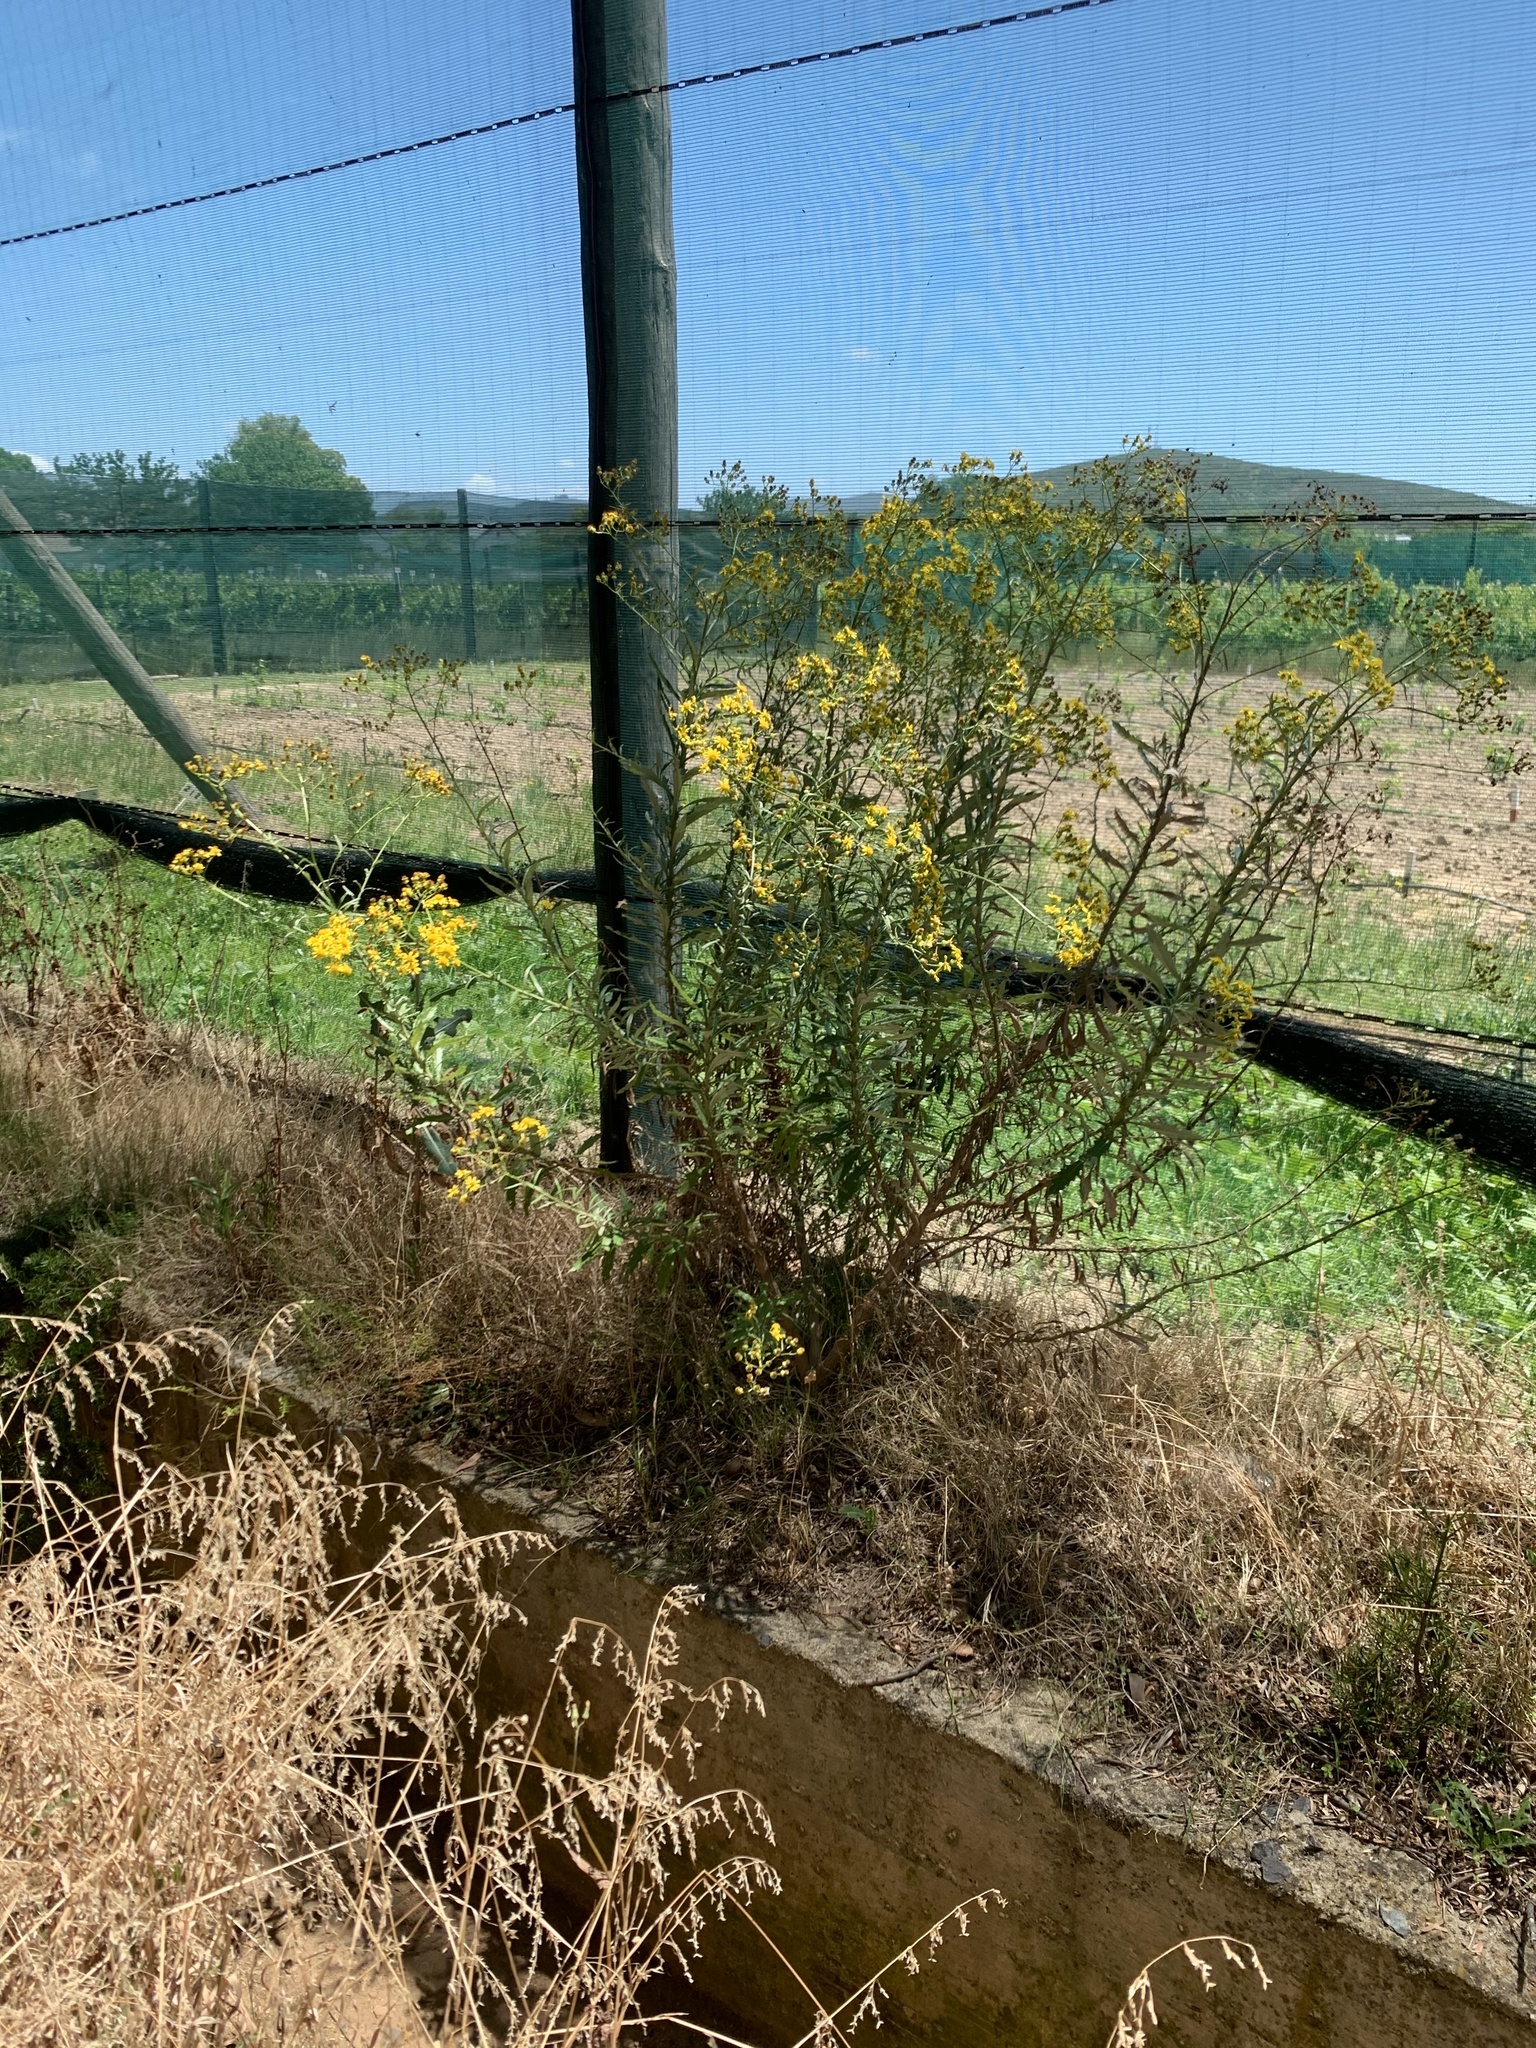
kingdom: Plantae
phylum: Tracheophyta
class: Magnoliopsida
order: Asterales
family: Asteraceae
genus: Senecio
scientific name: Senecio pterophorus
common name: Shoddy ragwort
